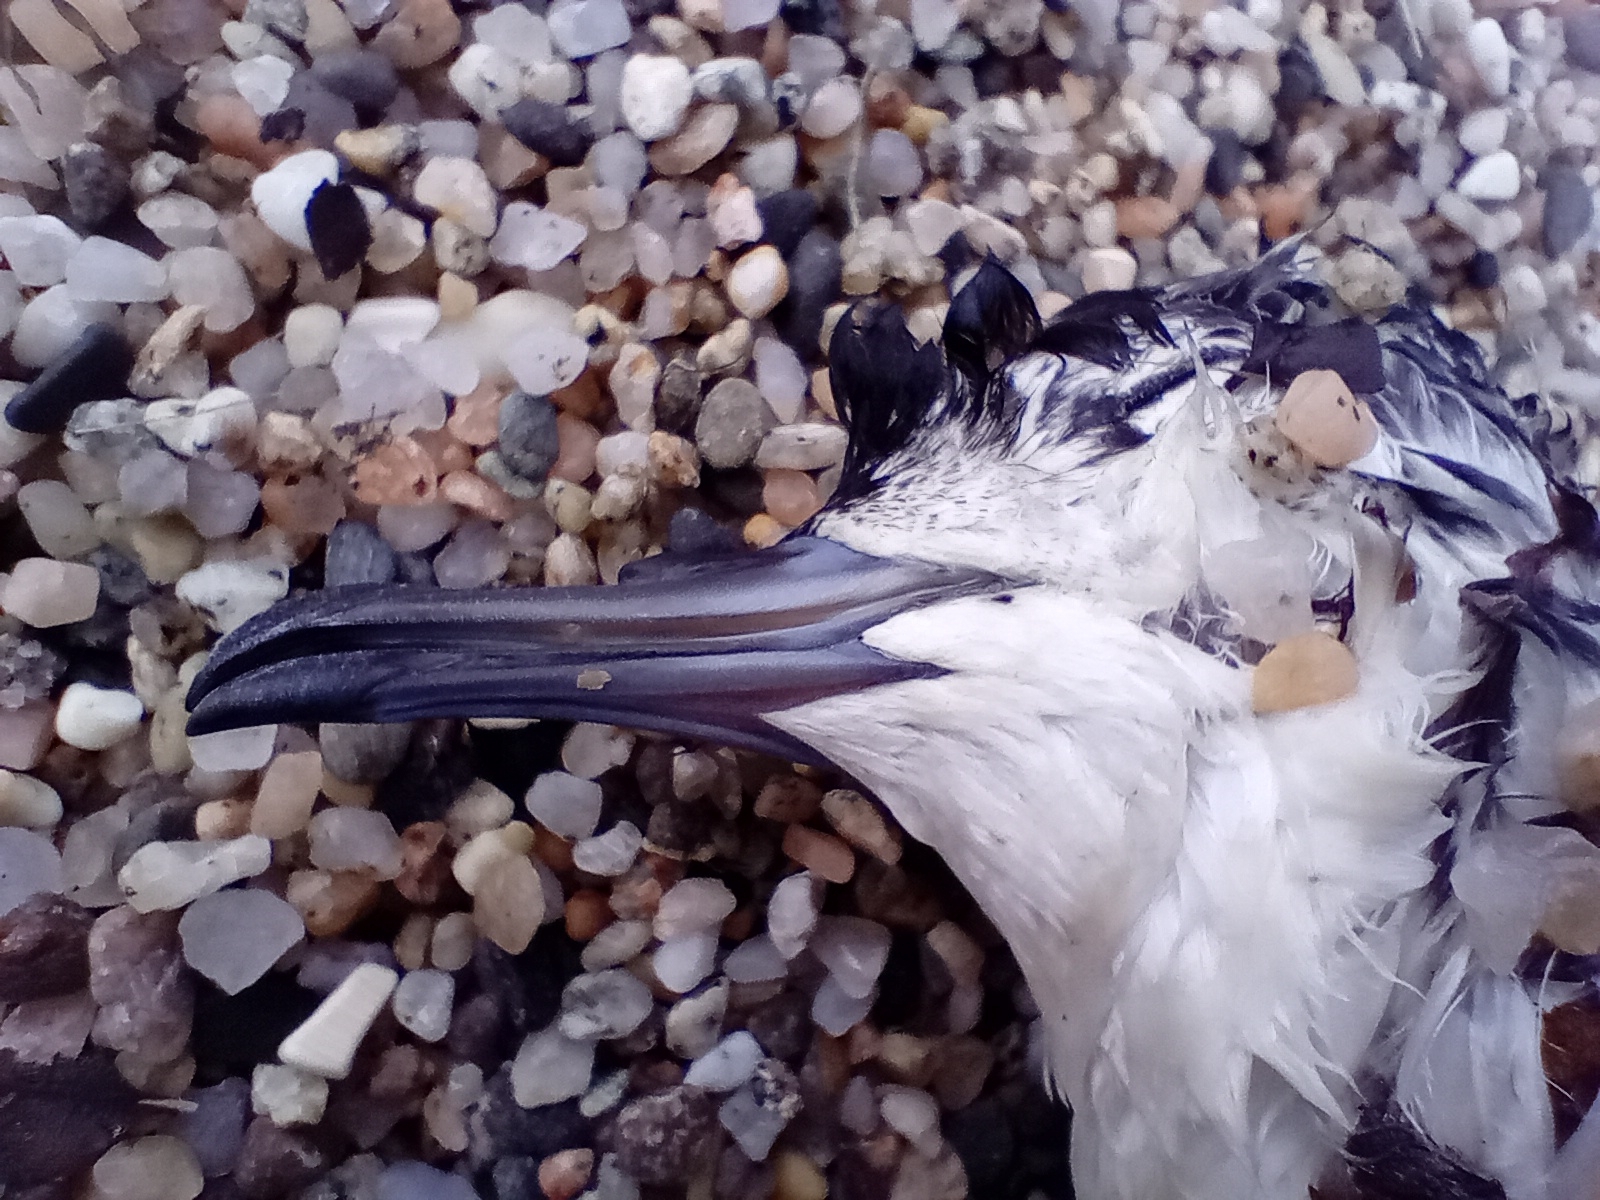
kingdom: Animalia
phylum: Chordata
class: Aves
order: Procellariiformes
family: Procellariidae
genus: Puffinus
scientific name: Puffinus assimilis
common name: Little shearwater
